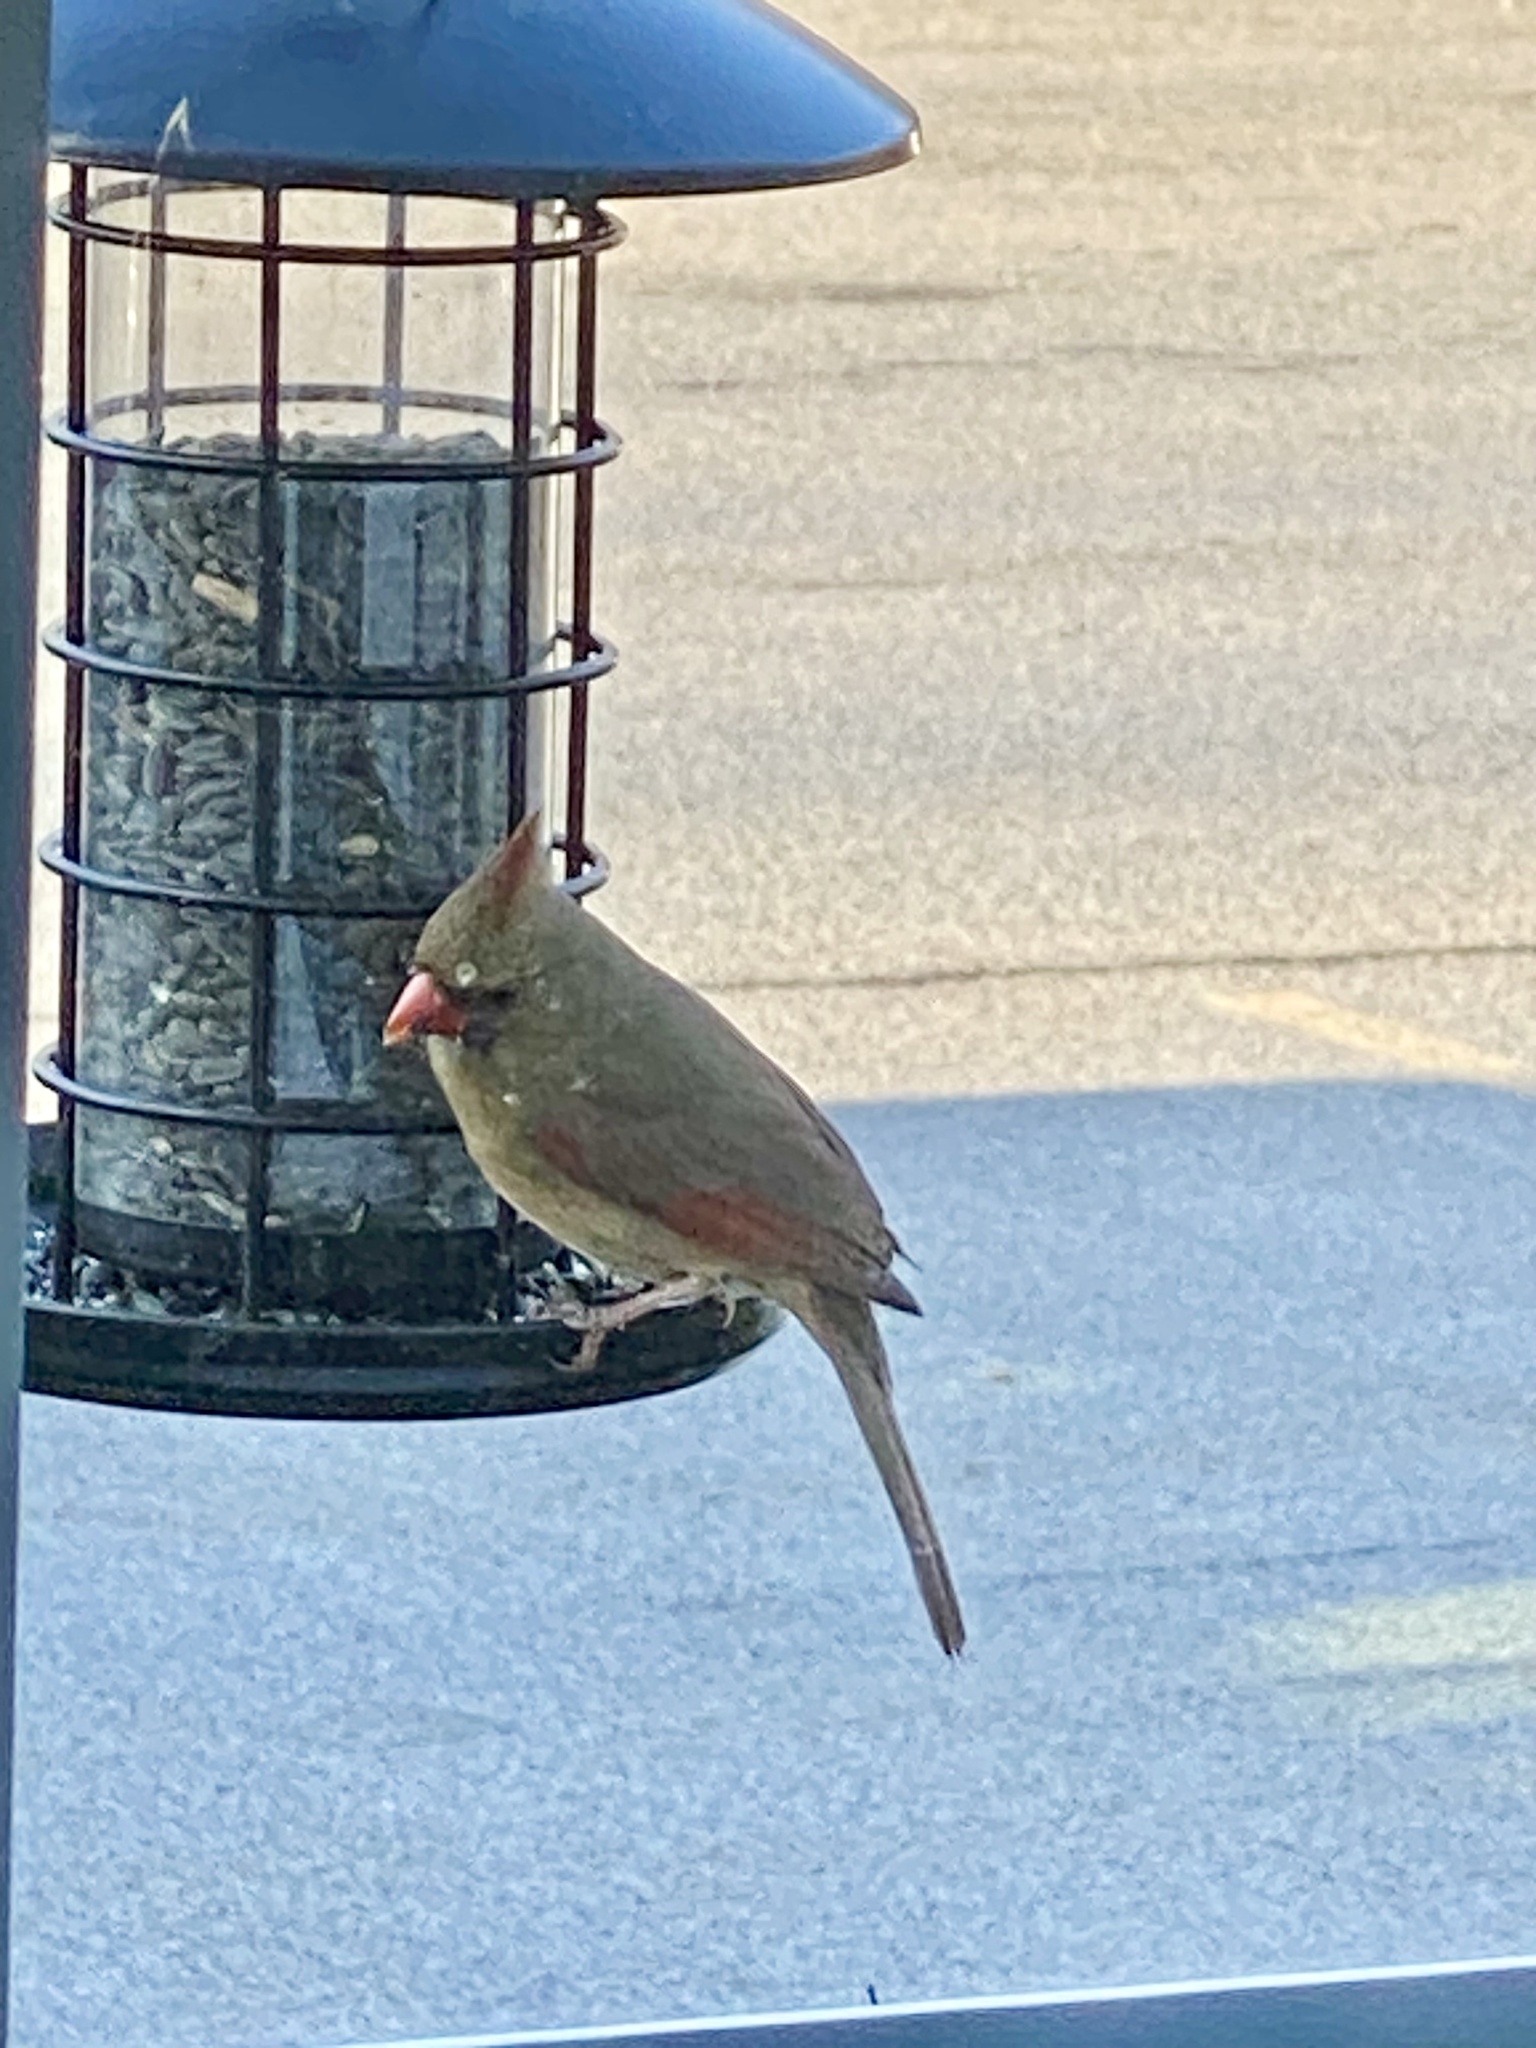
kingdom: Animalia
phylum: Chordata
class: Aves
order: Passeriformes
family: Cardinalidae
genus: Cardinalis
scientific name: Cardinalis cardinalis
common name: Northern cardinal
